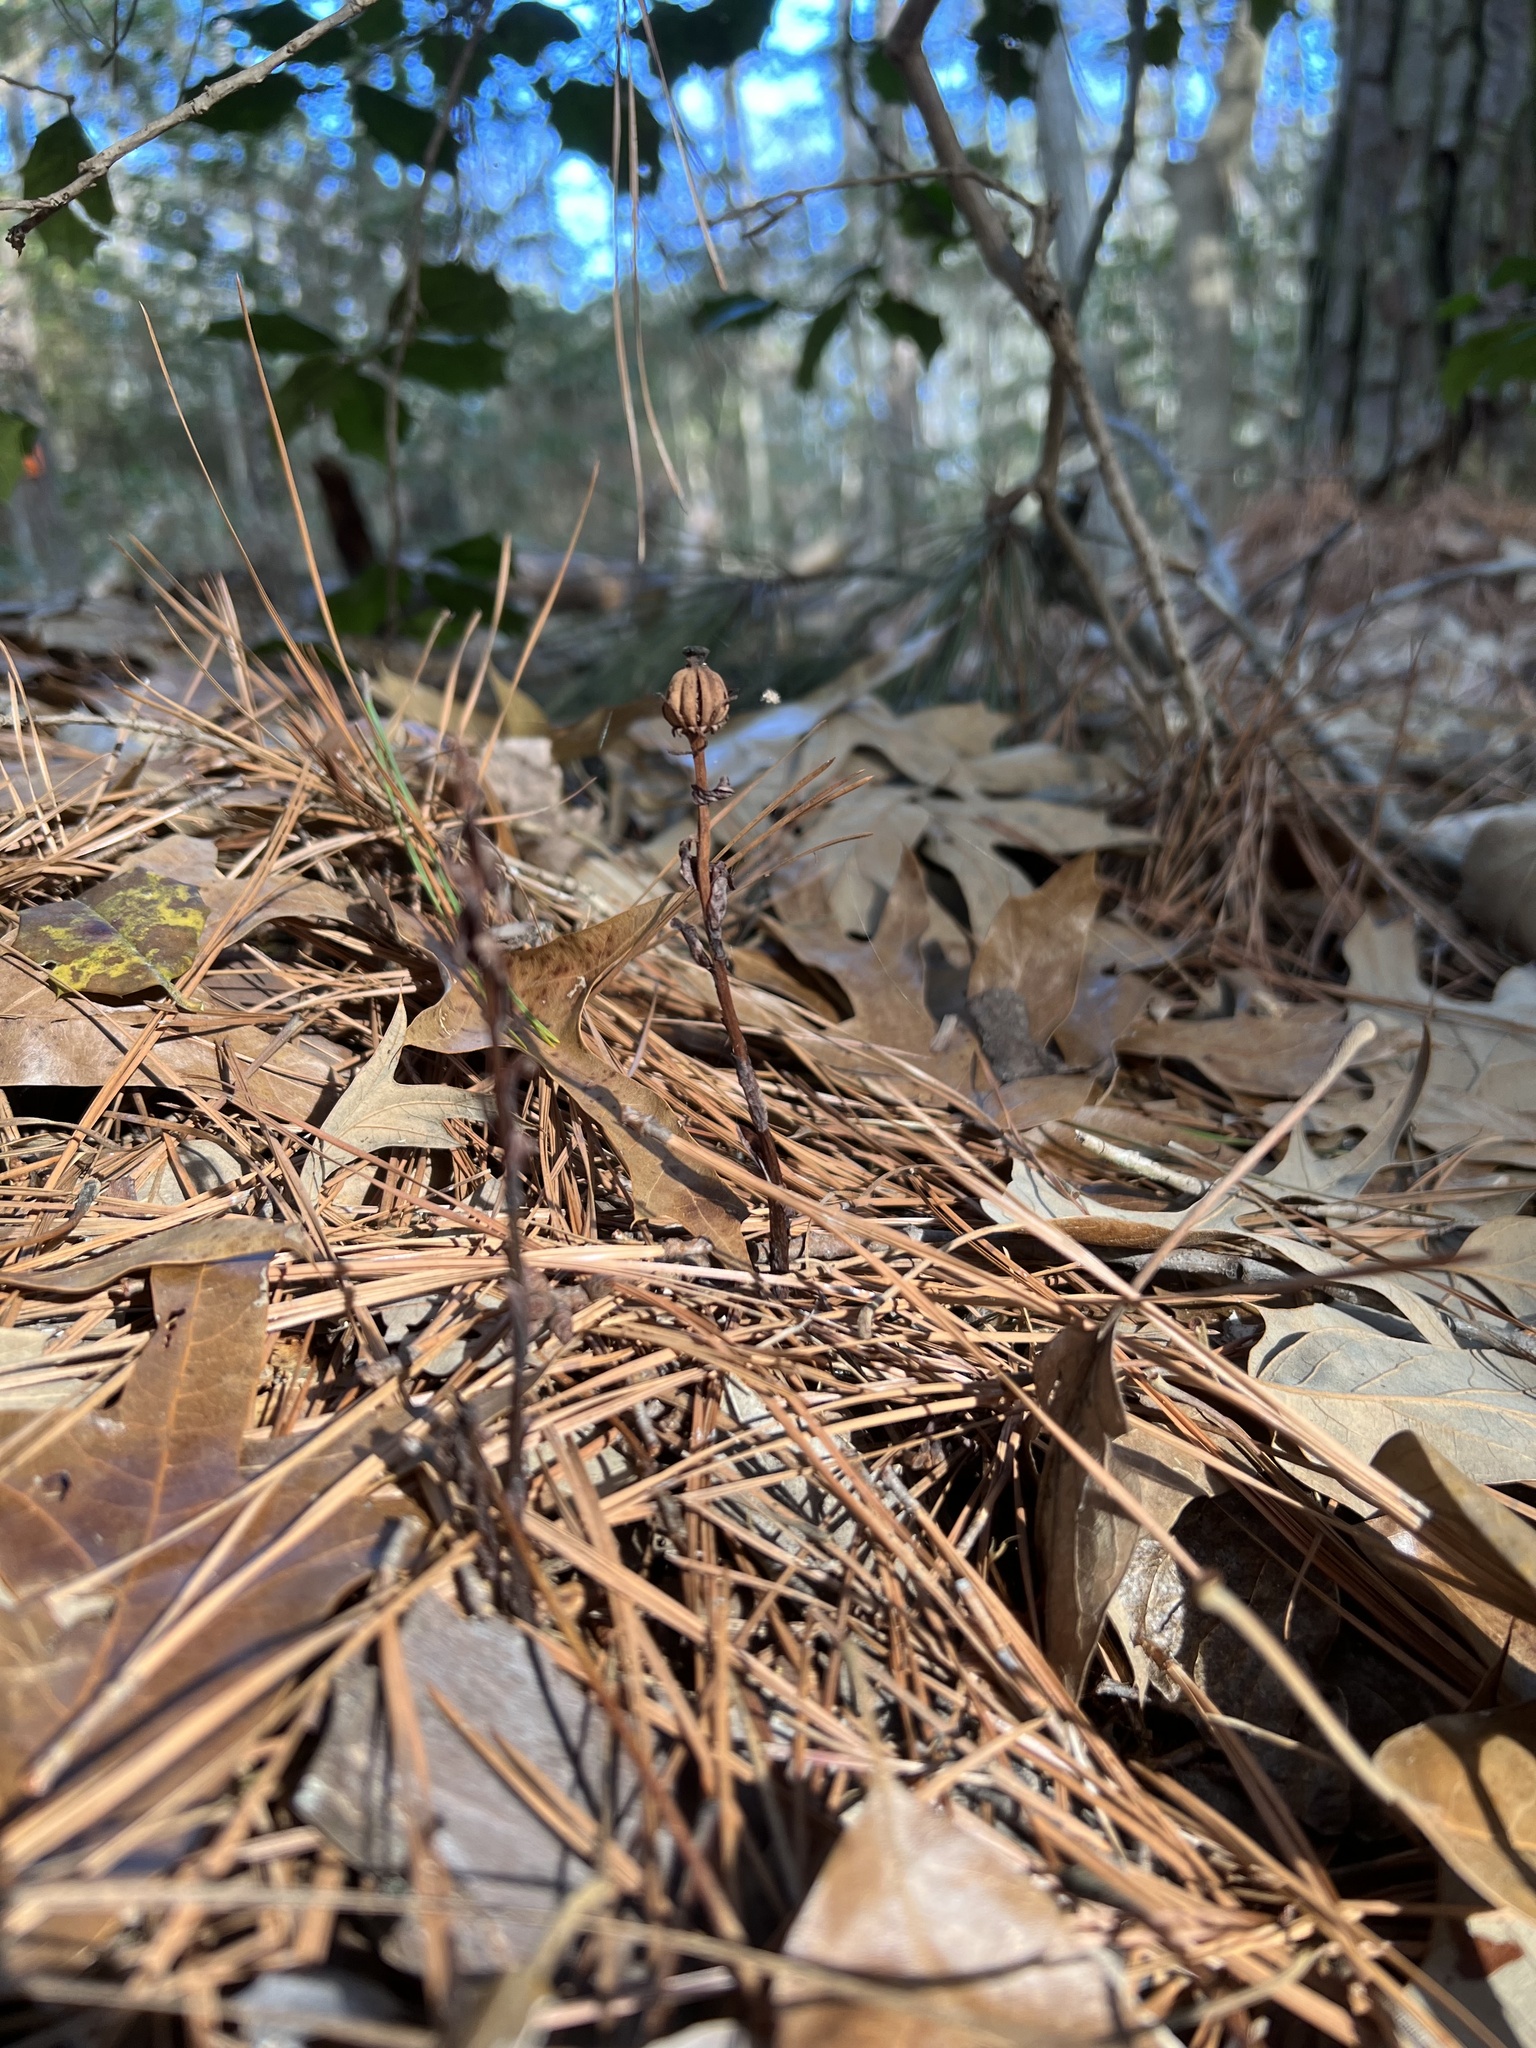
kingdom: Plantae
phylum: Tracheophyta
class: Magnoliopsida
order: Ericales
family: Ericaceae
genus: Monotropa
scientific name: Monotropa uniflora
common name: Convulsion root
